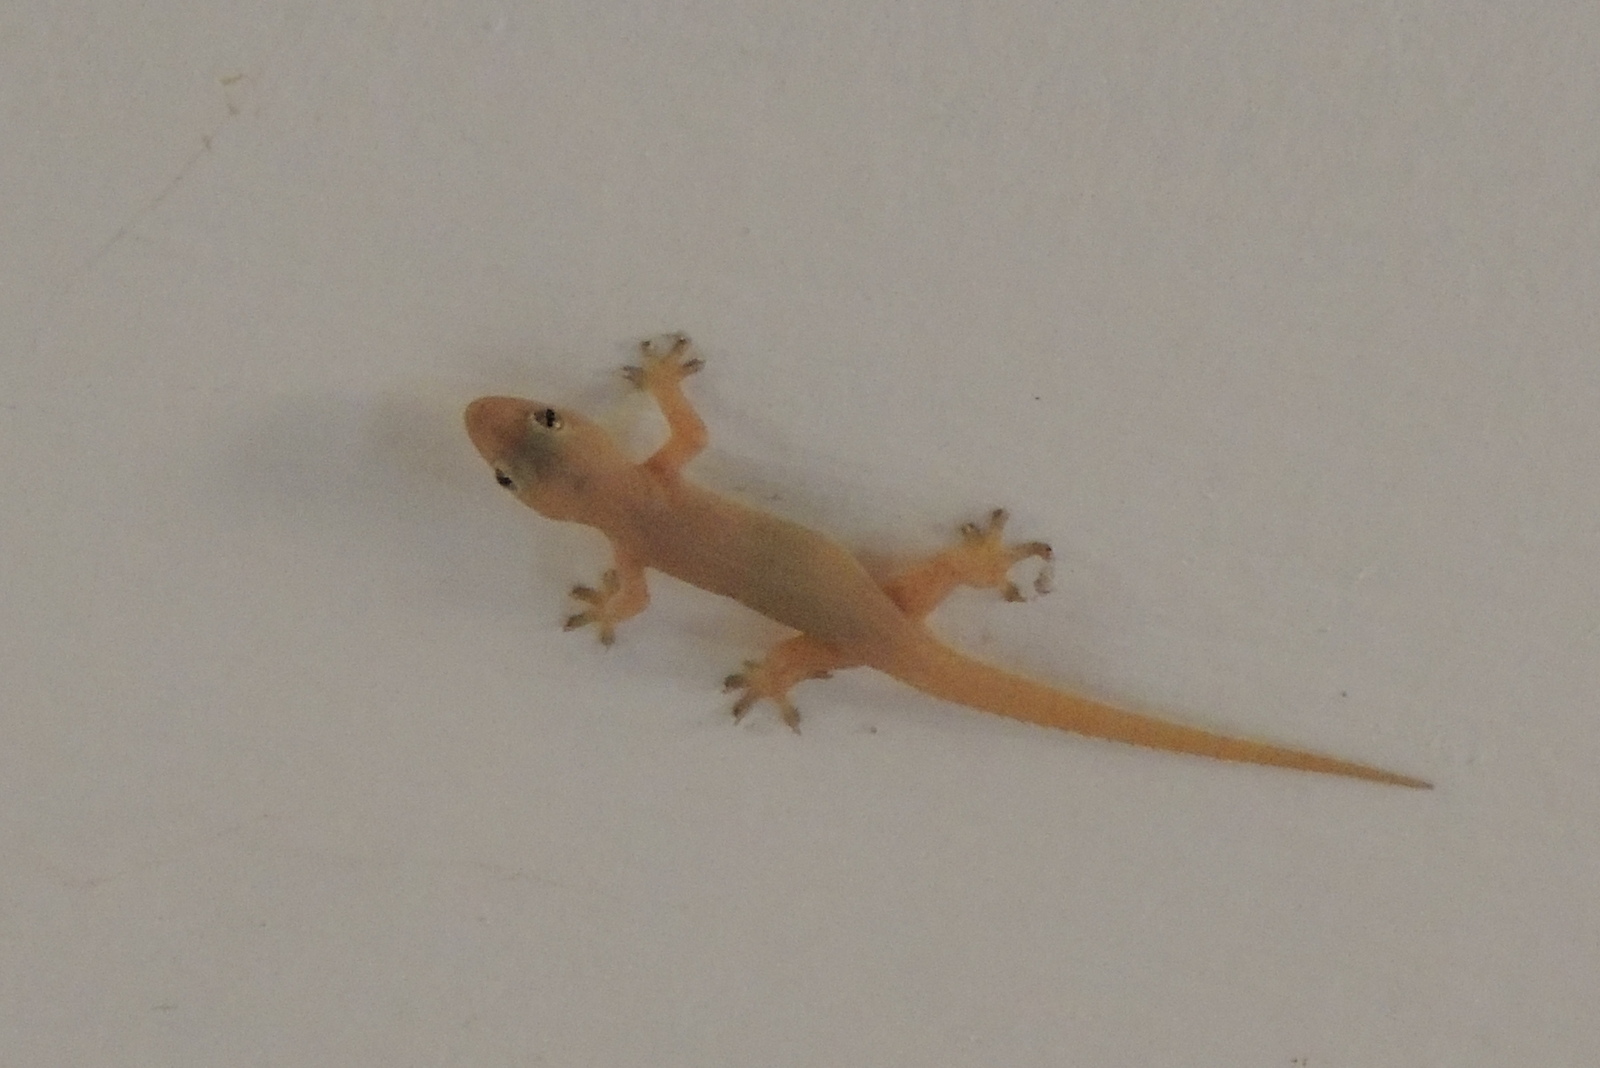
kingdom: Animalia
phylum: Chordata
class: Squamata
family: Gekkonidae
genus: Hemidactylus
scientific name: Hemidactylus frenatus
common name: Common house gecko
